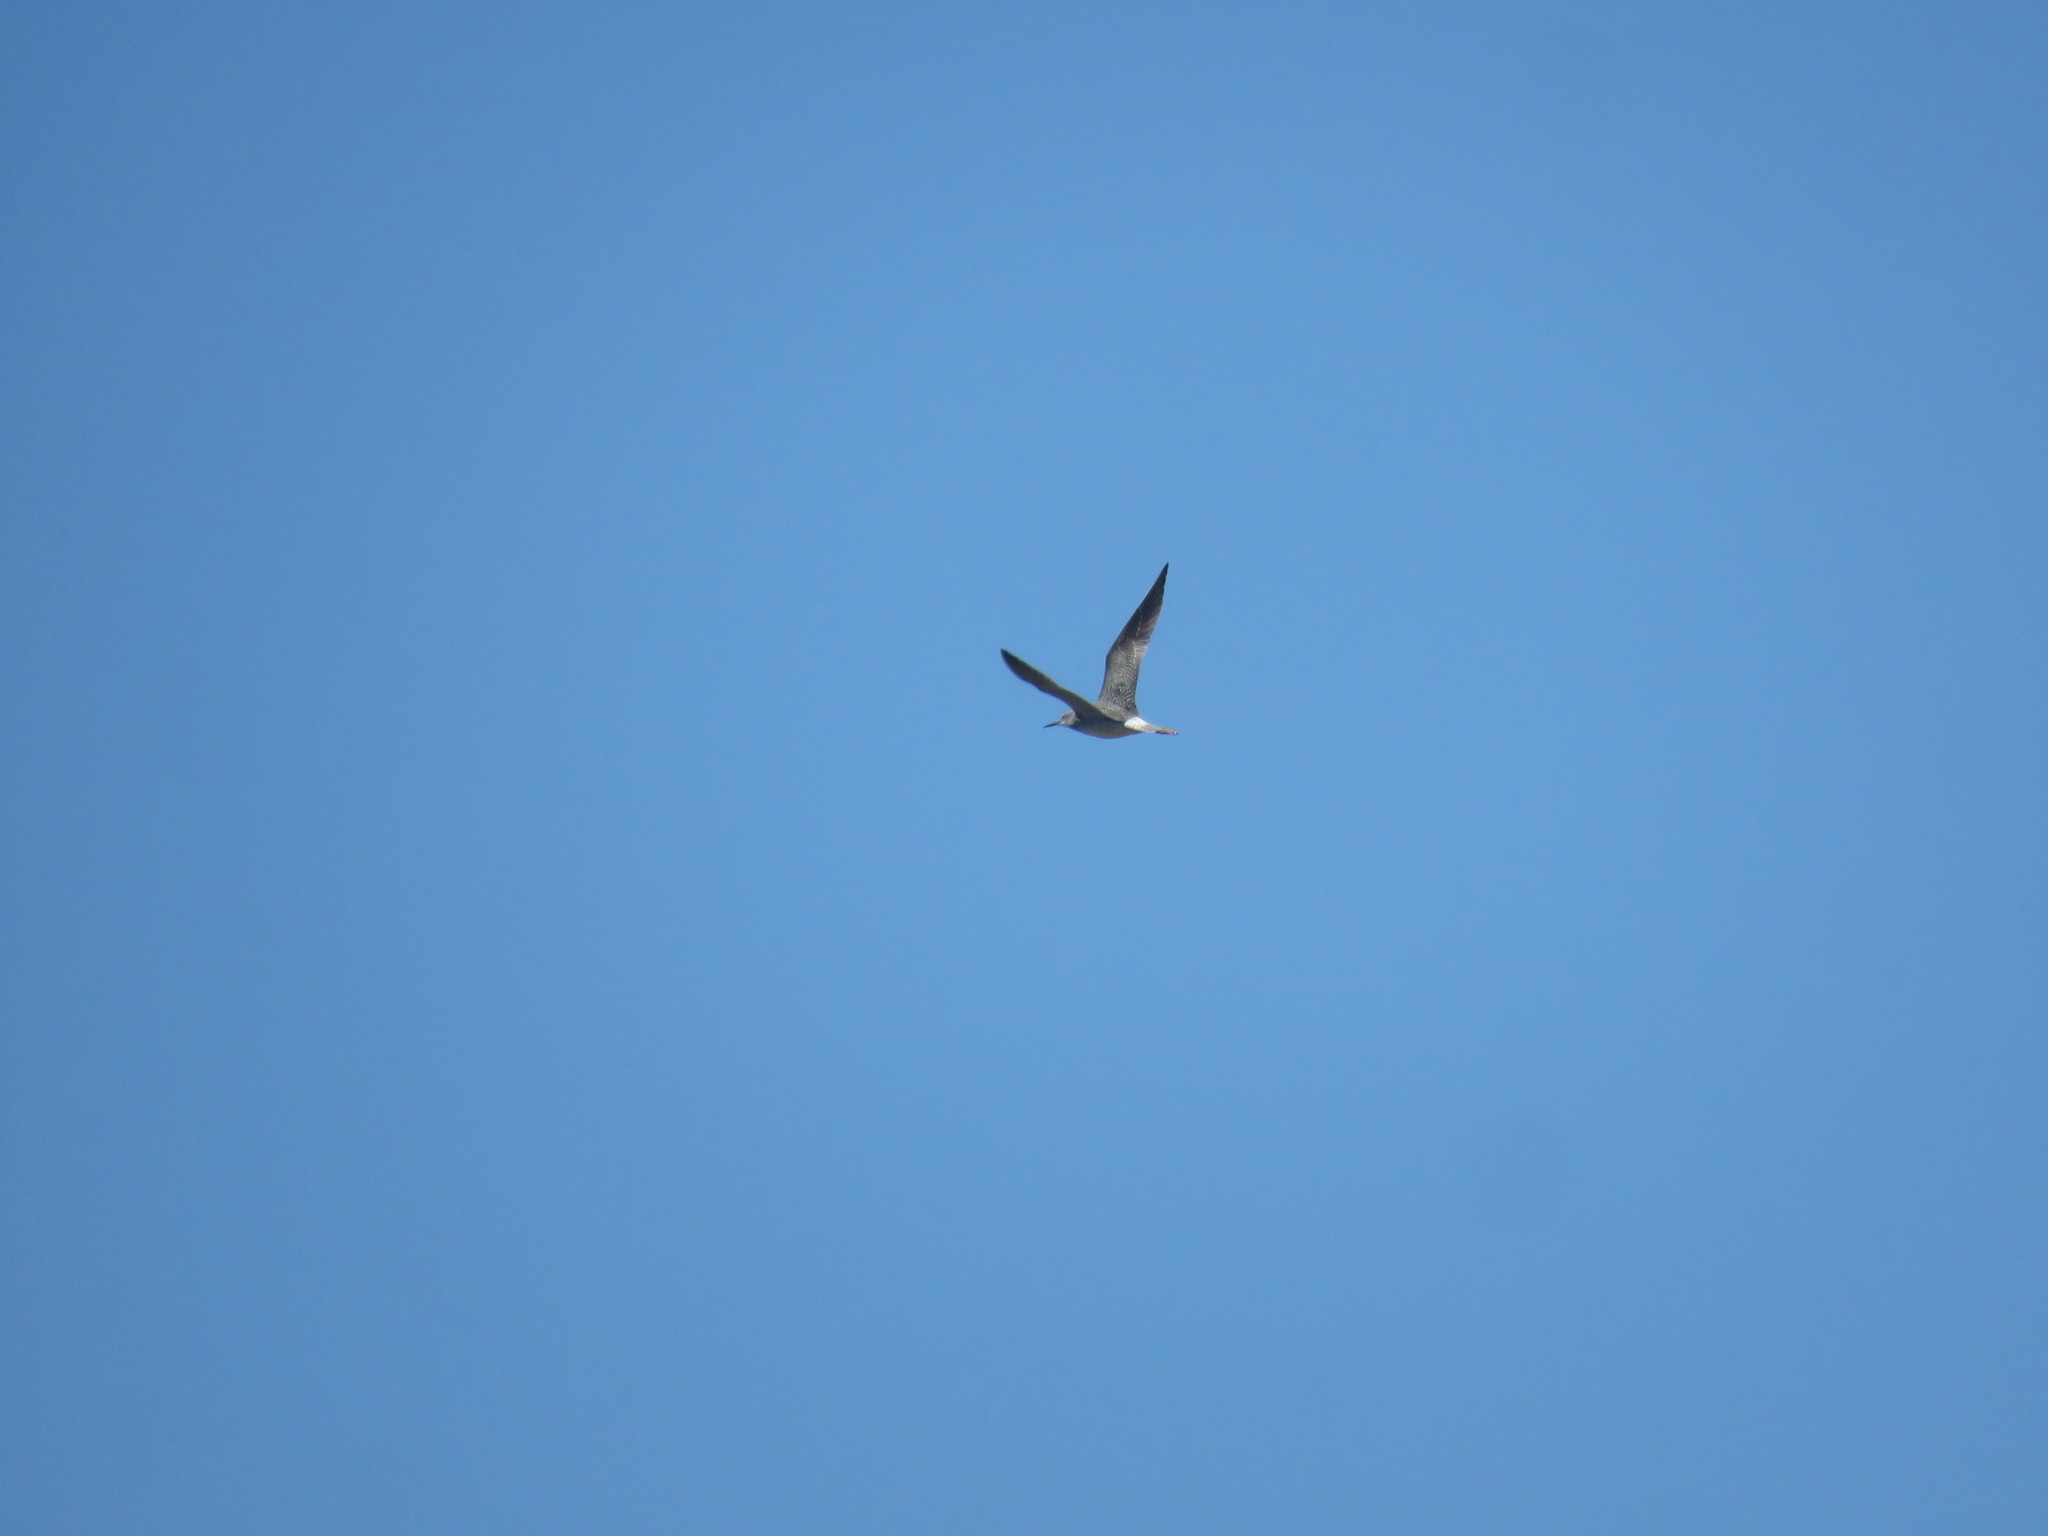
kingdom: Animalia
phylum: Chordata
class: Aves
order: Charadriiformes
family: Scolopacidae
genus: Tringa
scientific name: Tringa melanoleuca
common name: Greater yellowlegs
